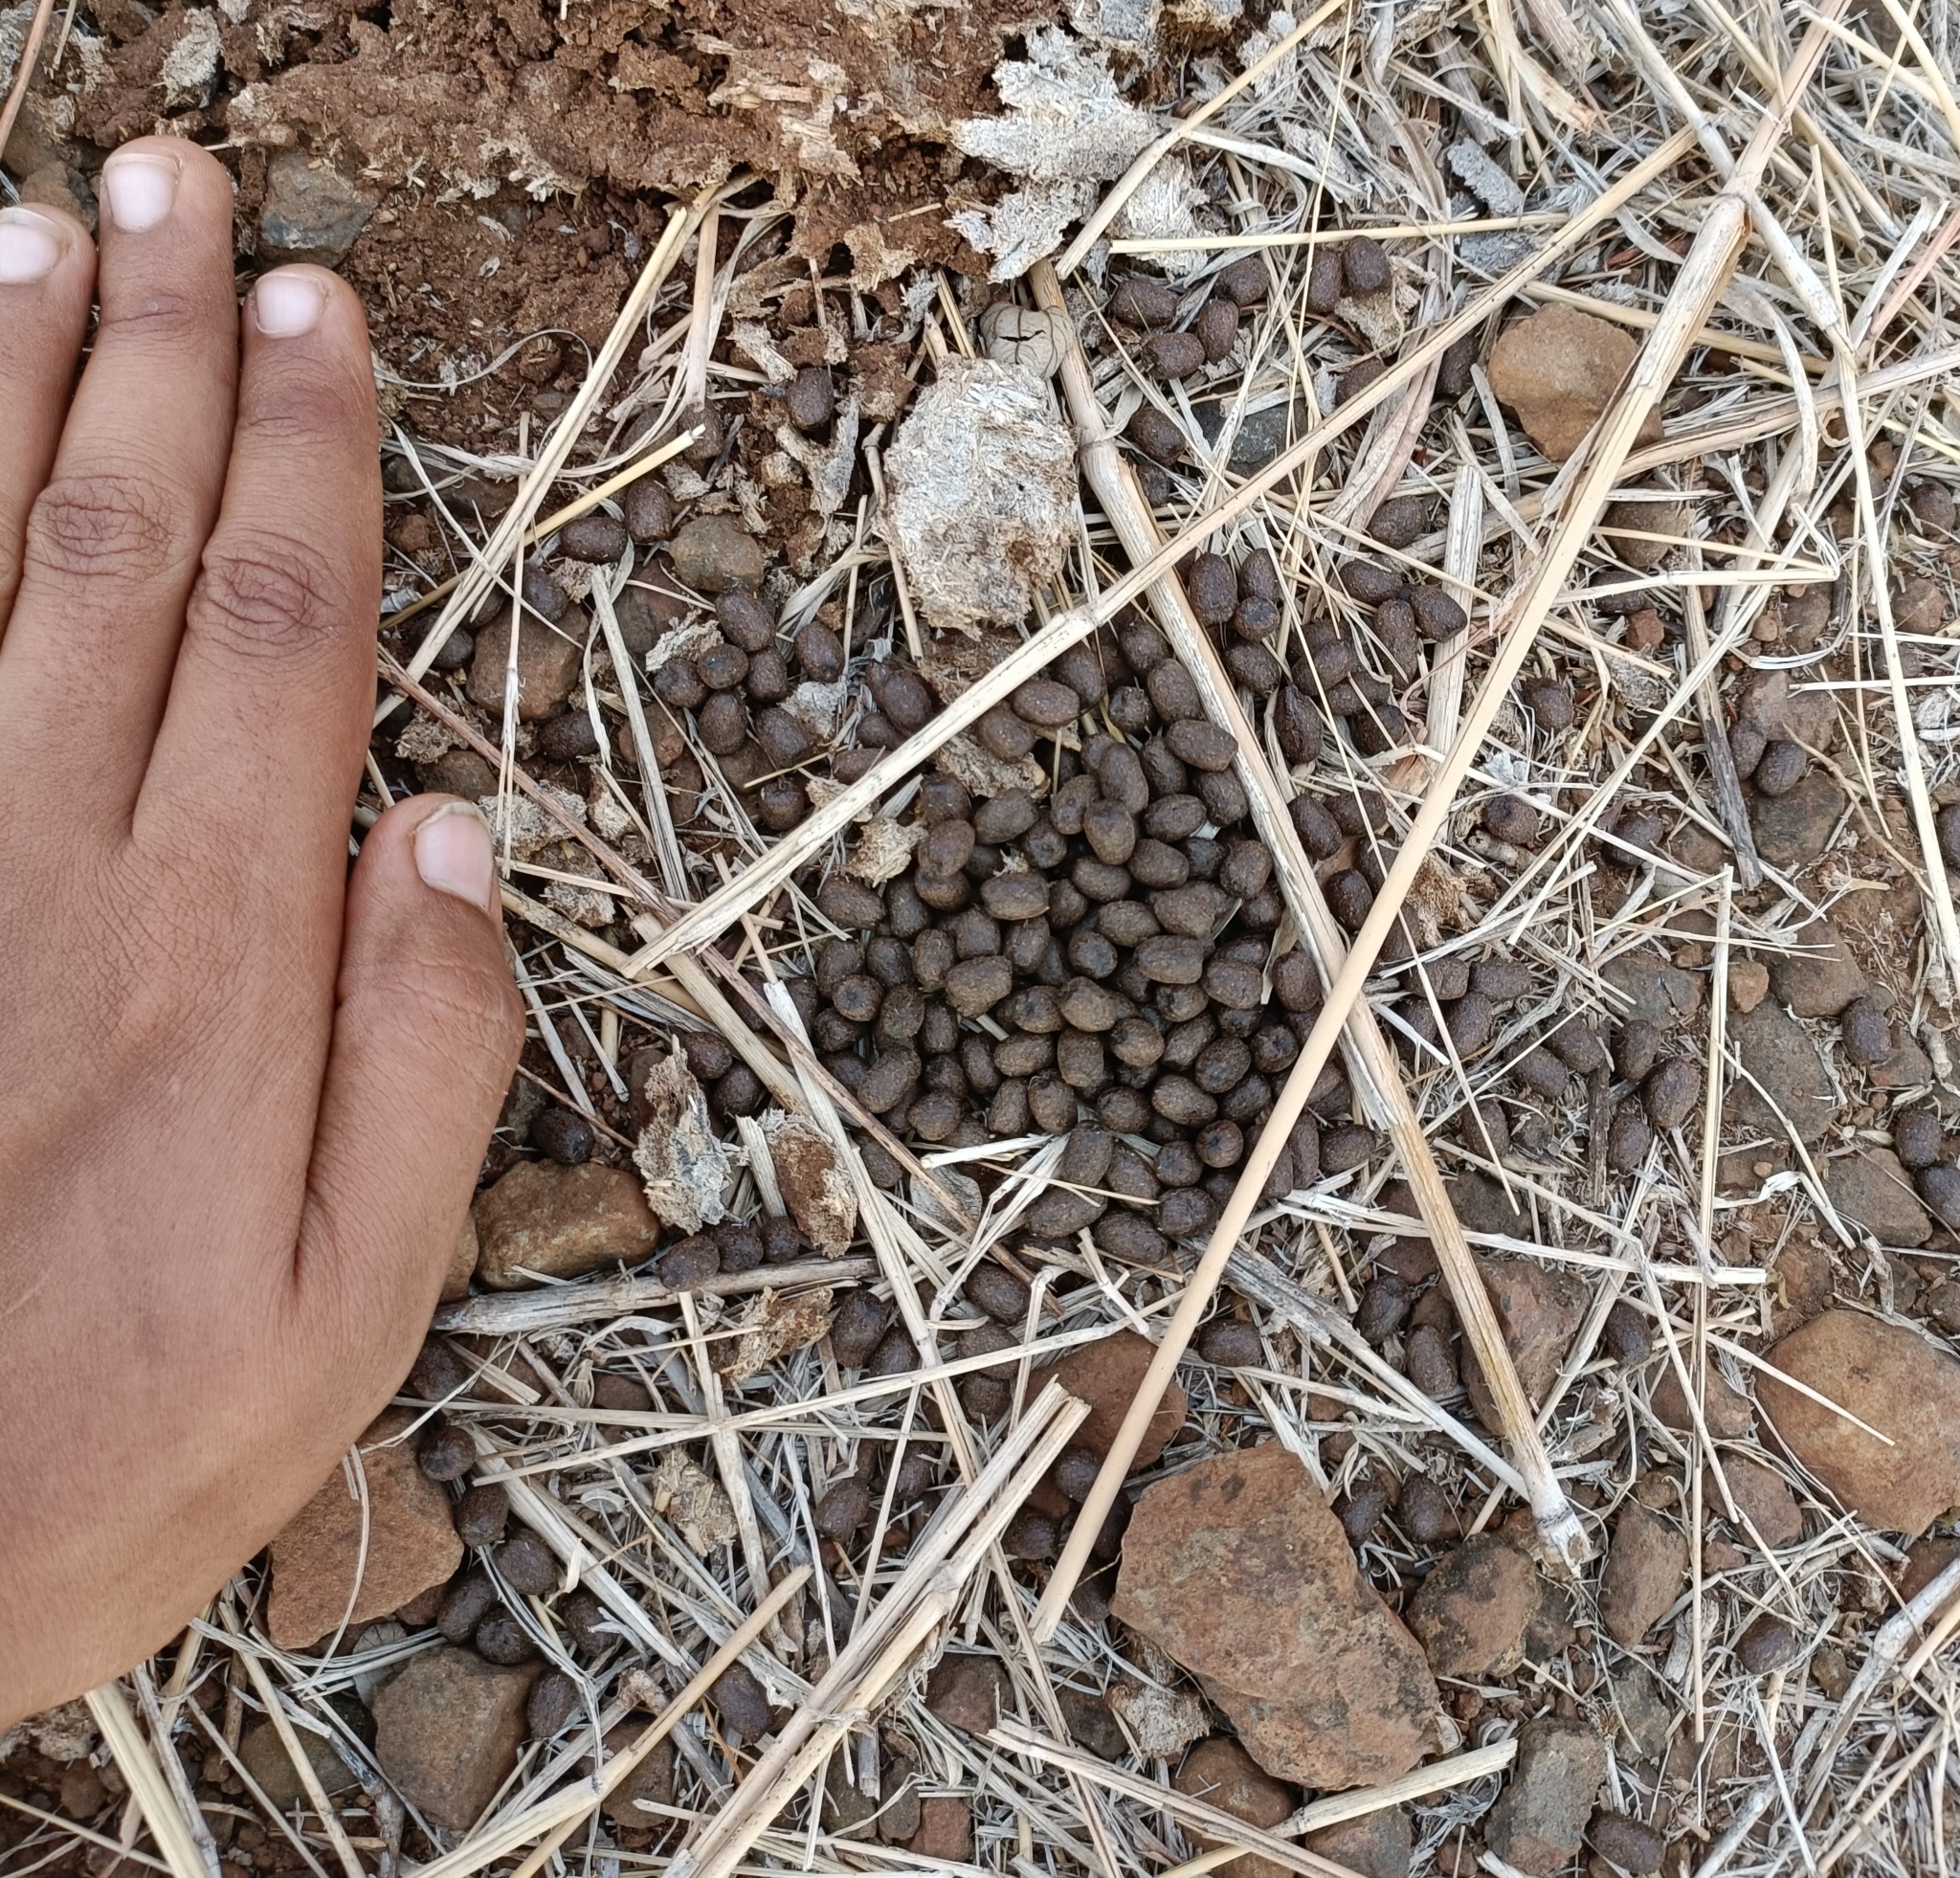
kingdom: Animalia
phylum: Chordata
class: Mammalia
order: Artiodactyla
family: Bovidae
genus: Gazella
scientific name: Gazella bennettii
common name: Indian gazelle
